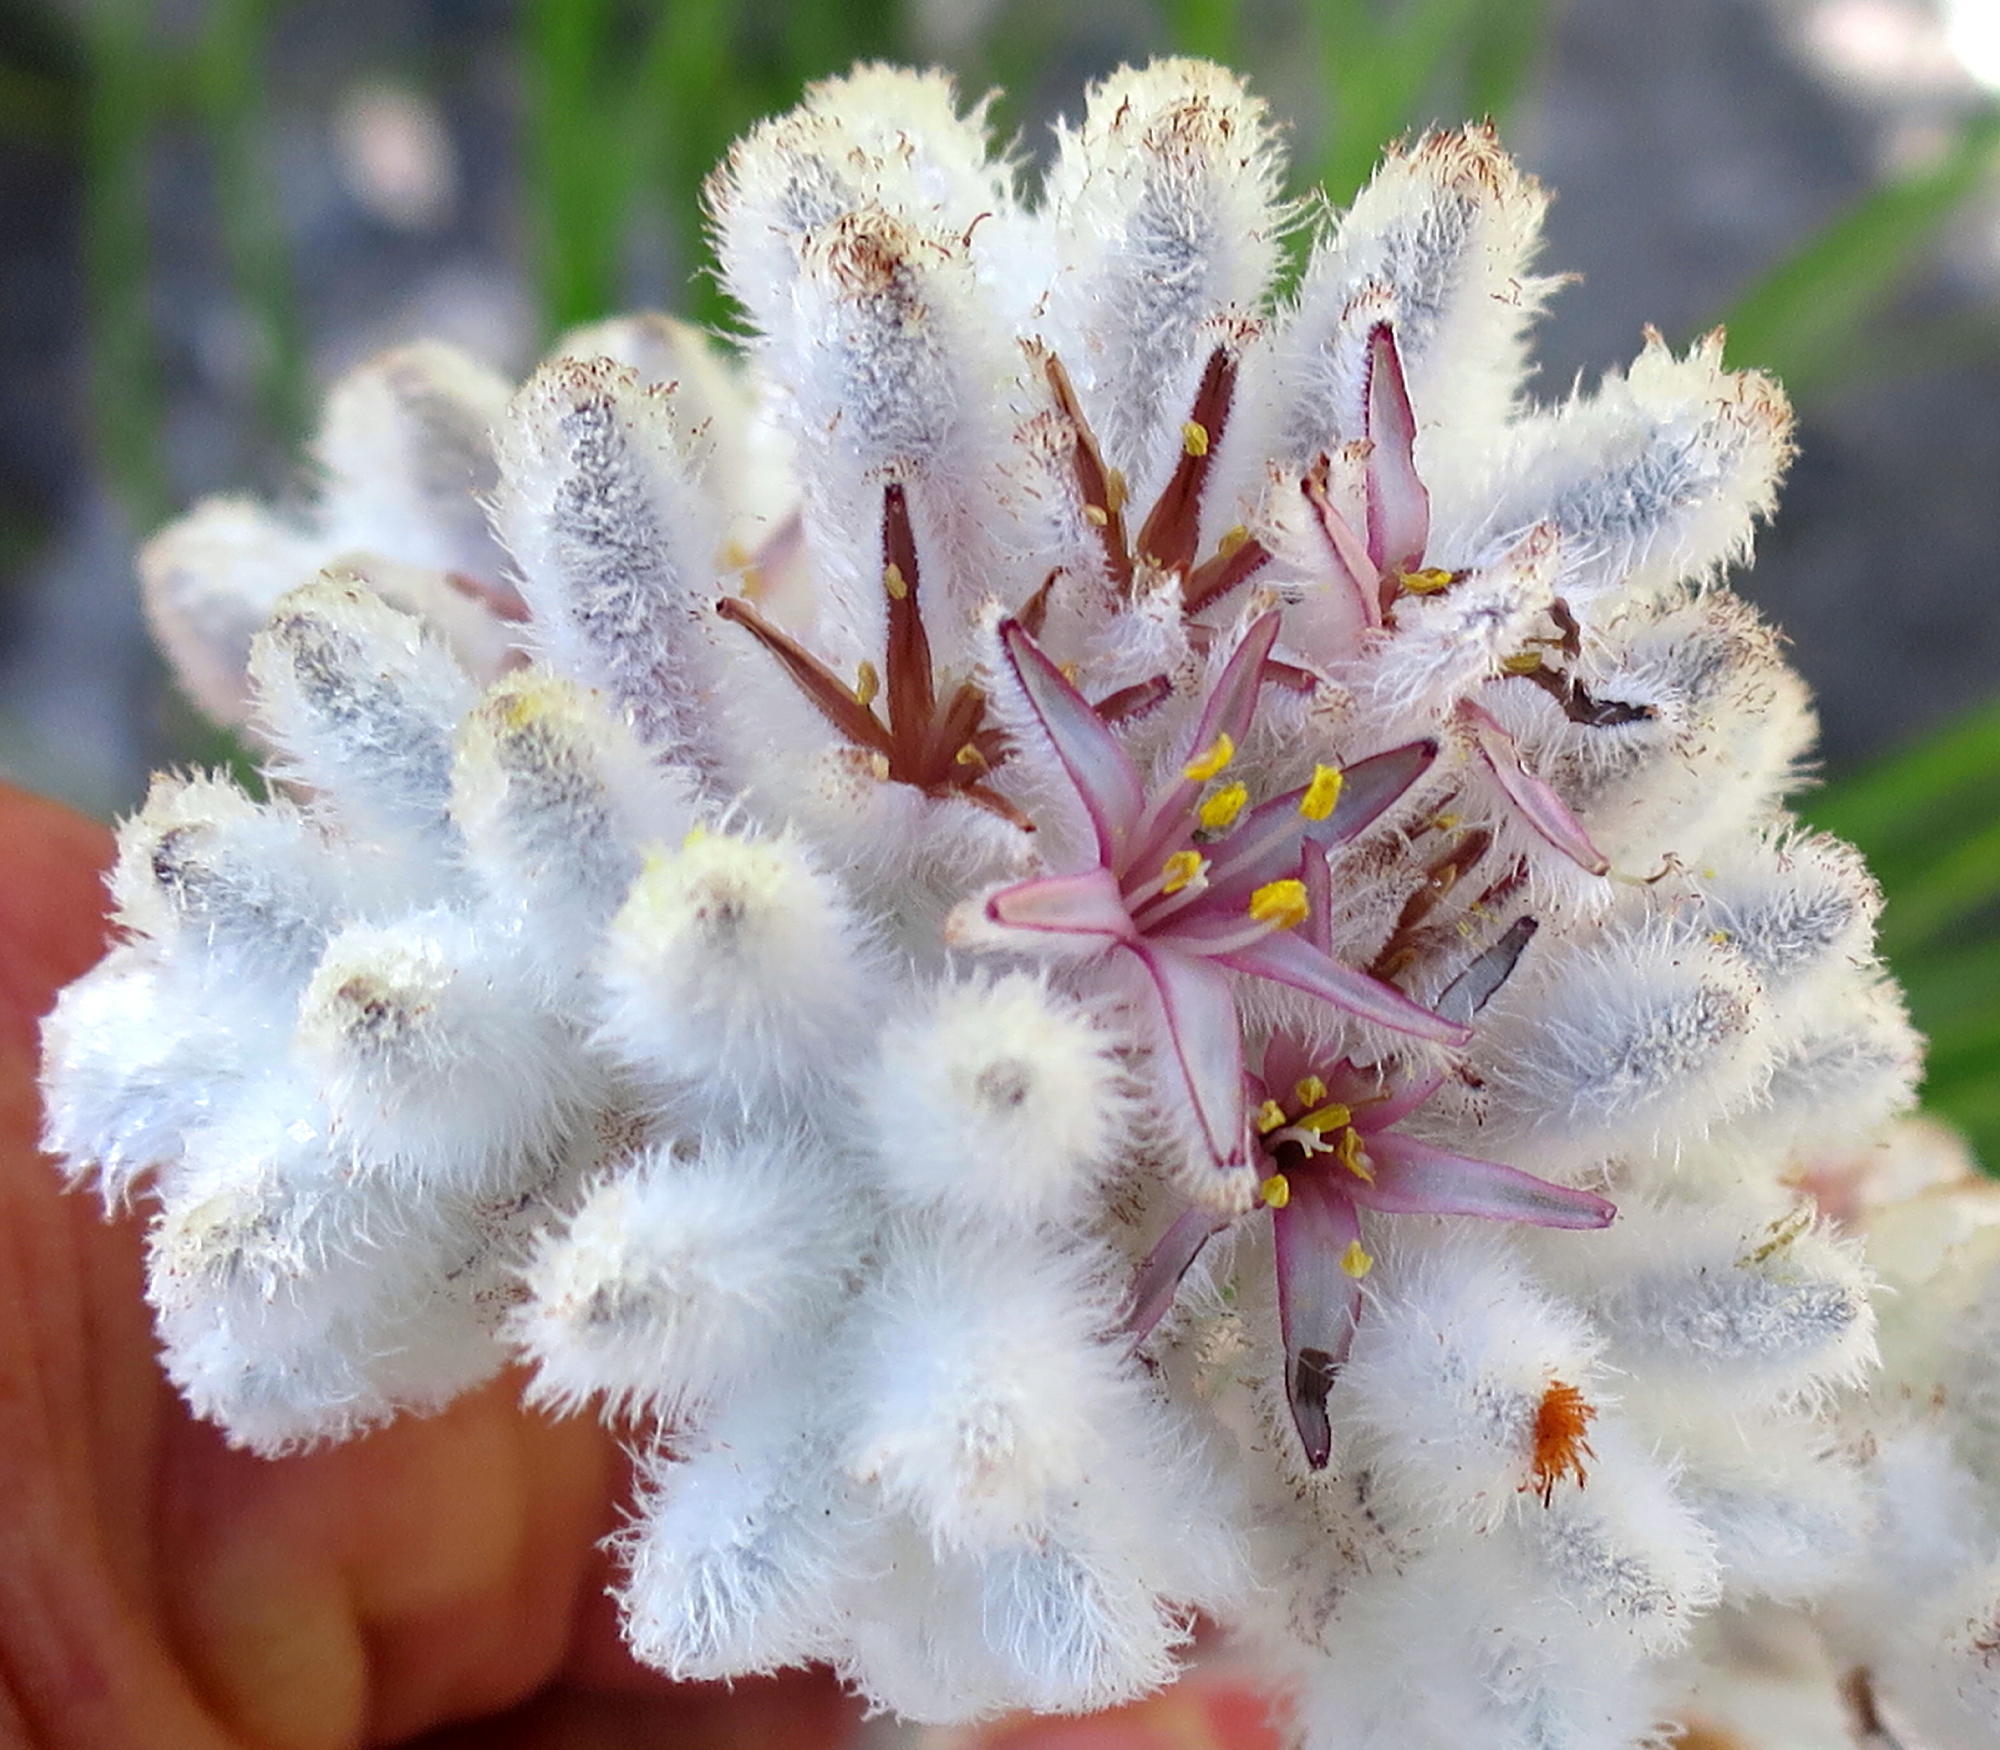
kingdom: Plantae
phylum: Tracheophyta
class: Liliopsida
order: Asparagales
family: Lanariaceae
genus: Lanaria
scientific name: Lanaria lanata
